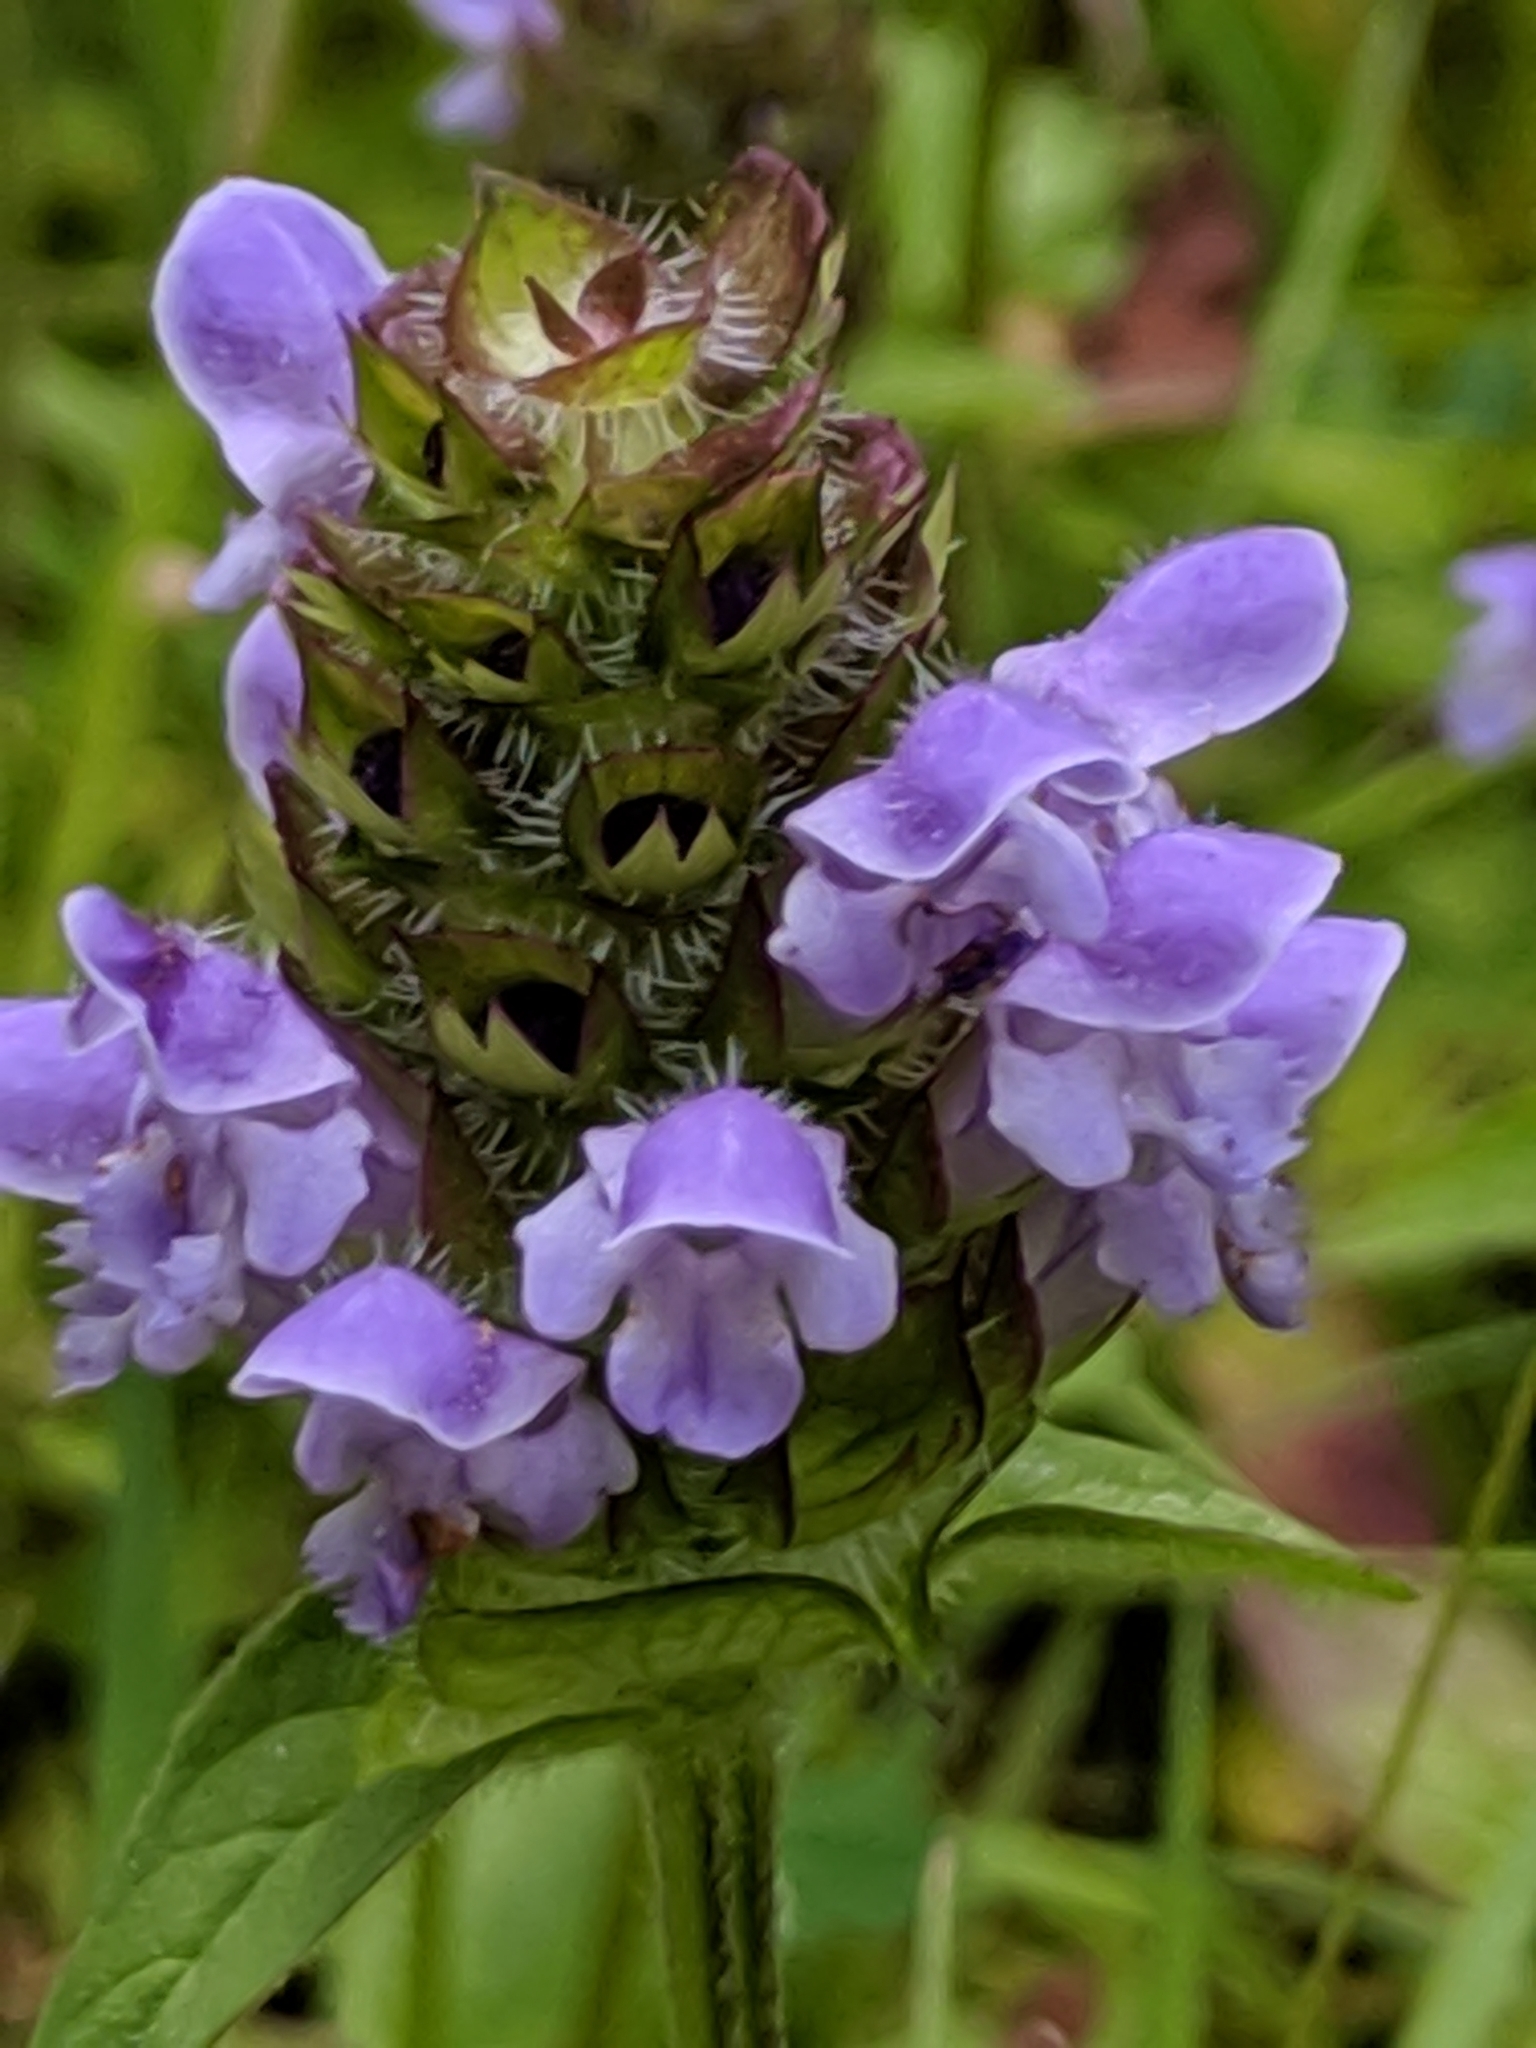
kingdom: Plantae
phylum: Tracheophyta
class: Magnoliopsida
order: Lamiales
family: Lamiaceae
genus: Prunella
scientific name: Prunella vulgaris
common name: Heal-all
